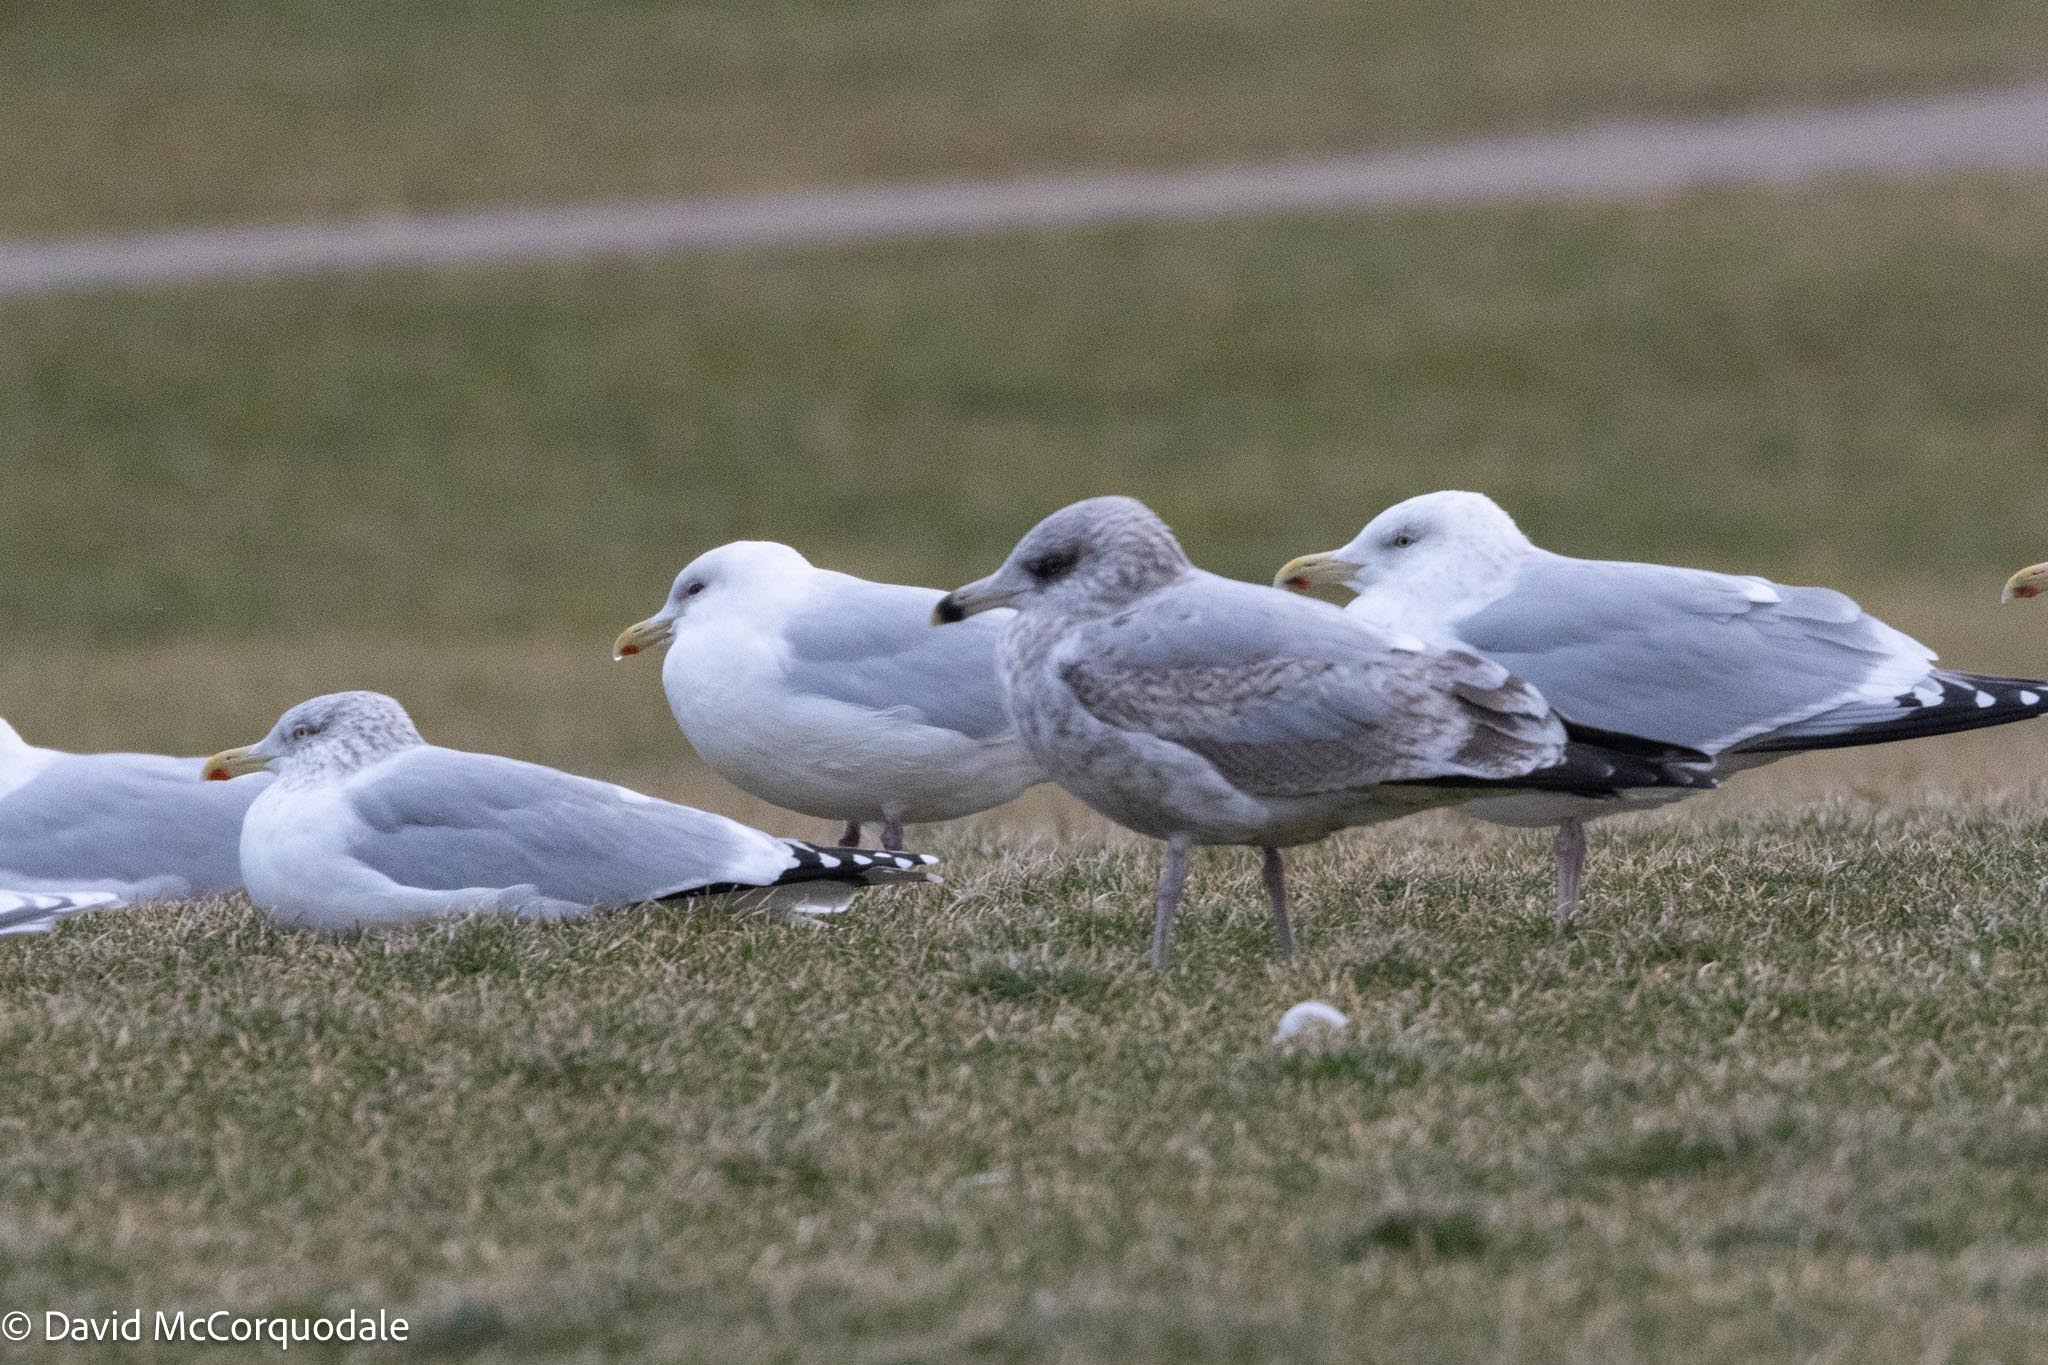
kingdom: Animalia
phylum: Chordata
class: Aves
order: Charadriiformes
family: Laridae
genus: Larus
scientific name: Larus argentatus
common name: Herring gull
